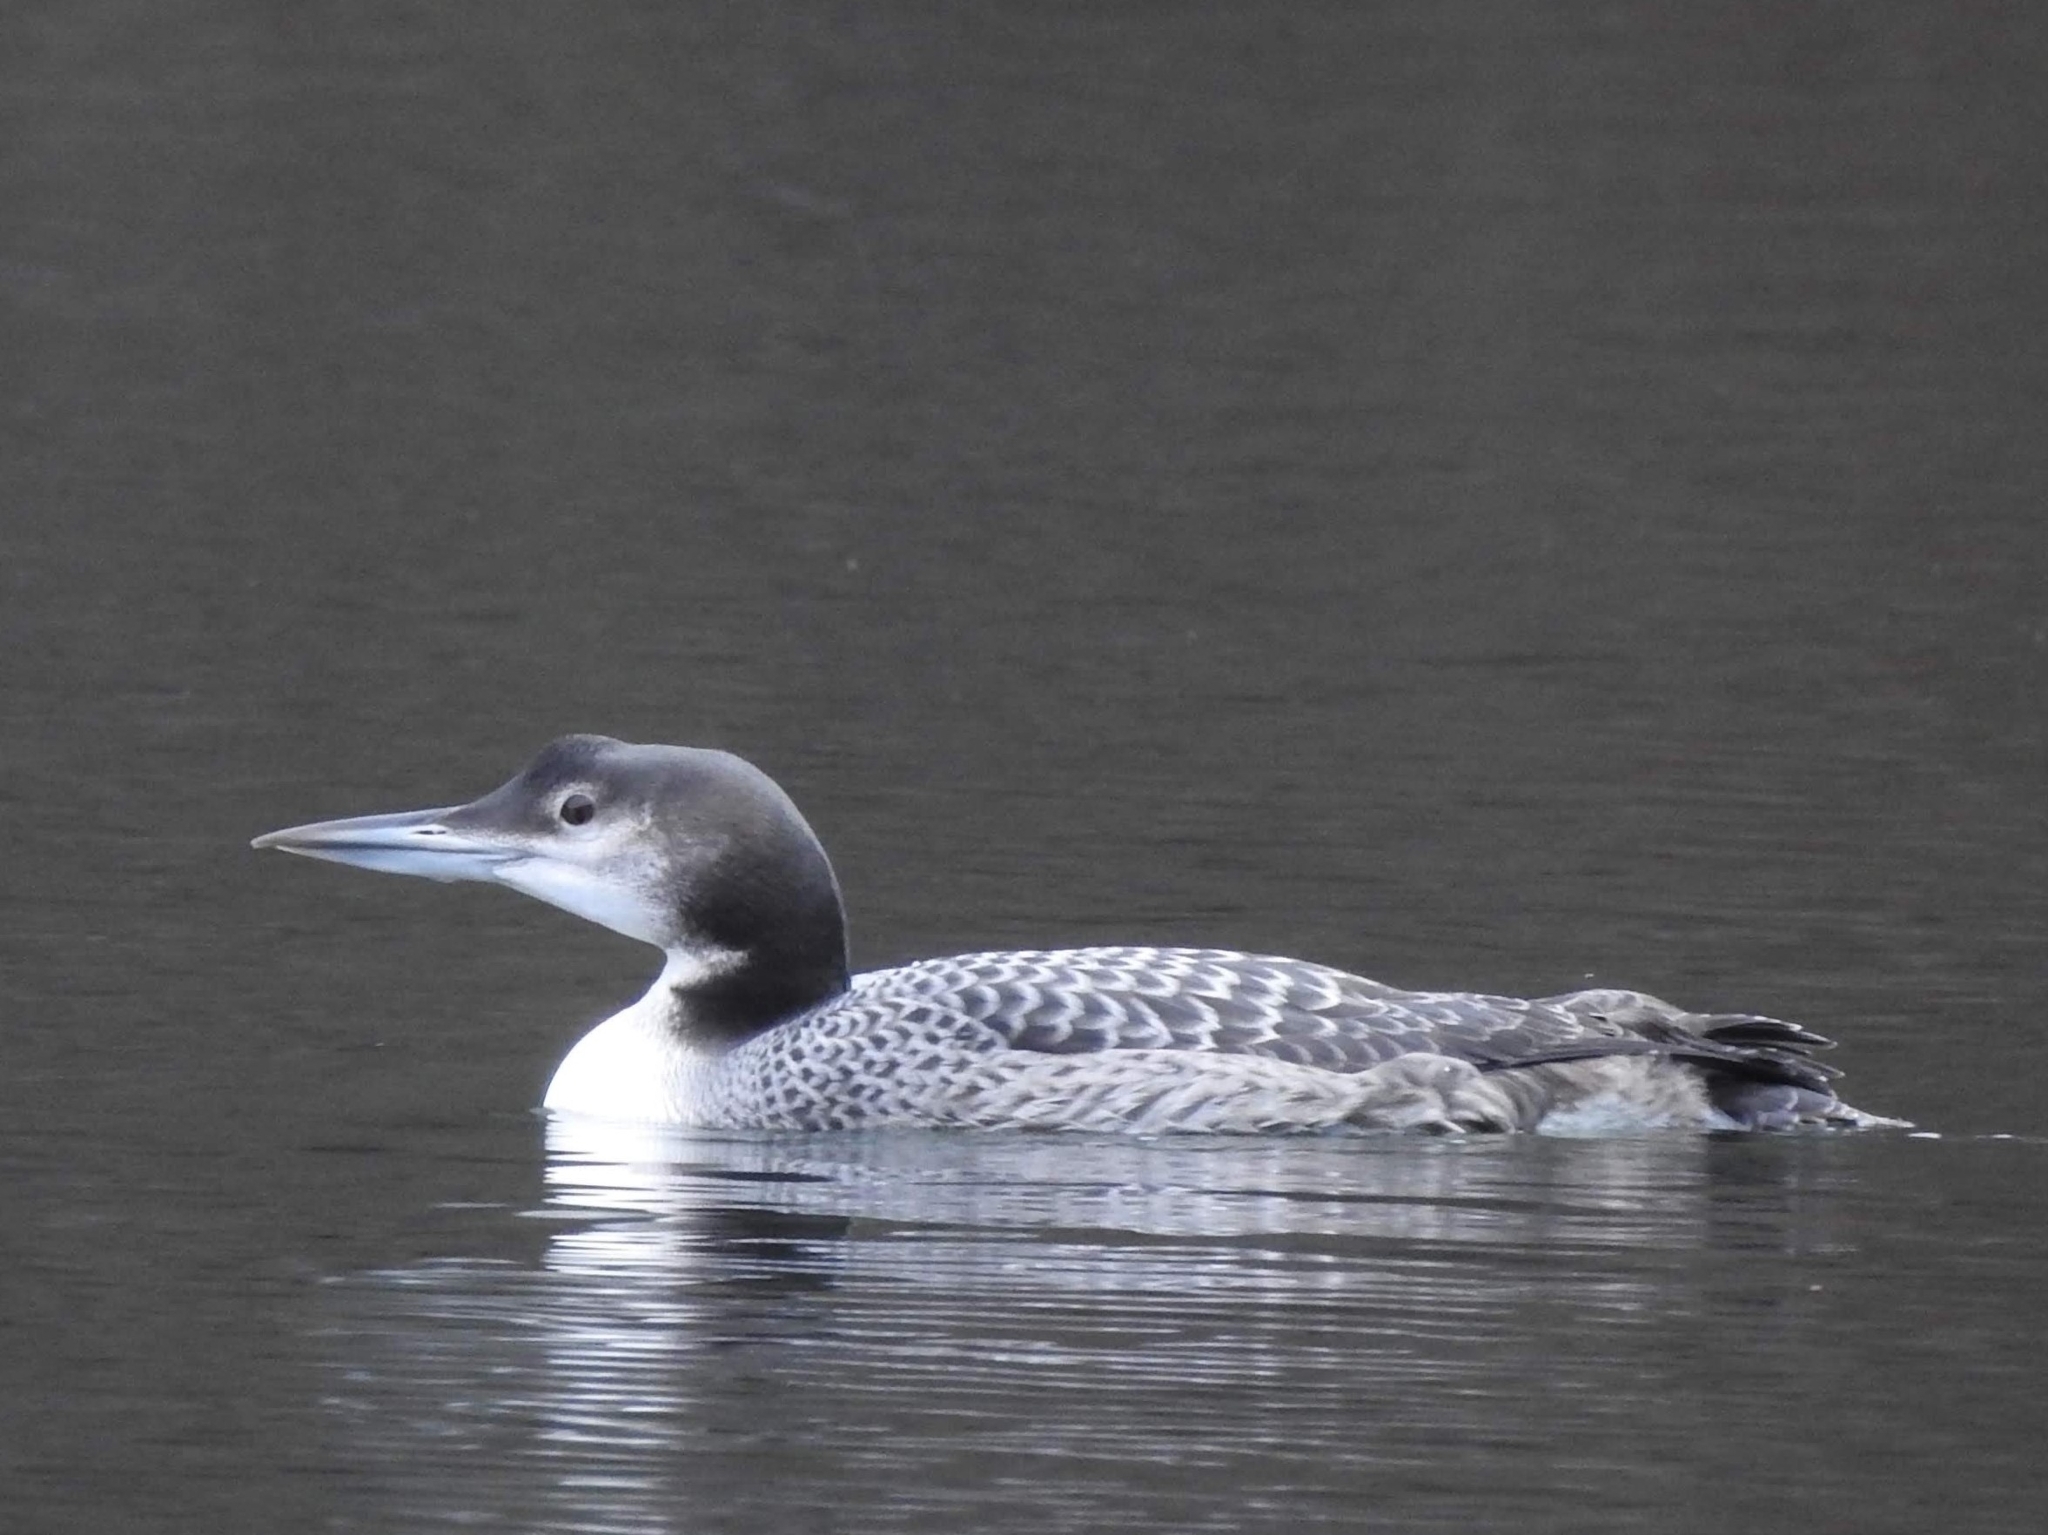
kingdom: Animalia
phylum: Chordata
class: Aves
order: Gaviiformes
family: Gaviidae
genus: Gavia
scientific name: Gavia immer
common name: Common loon
